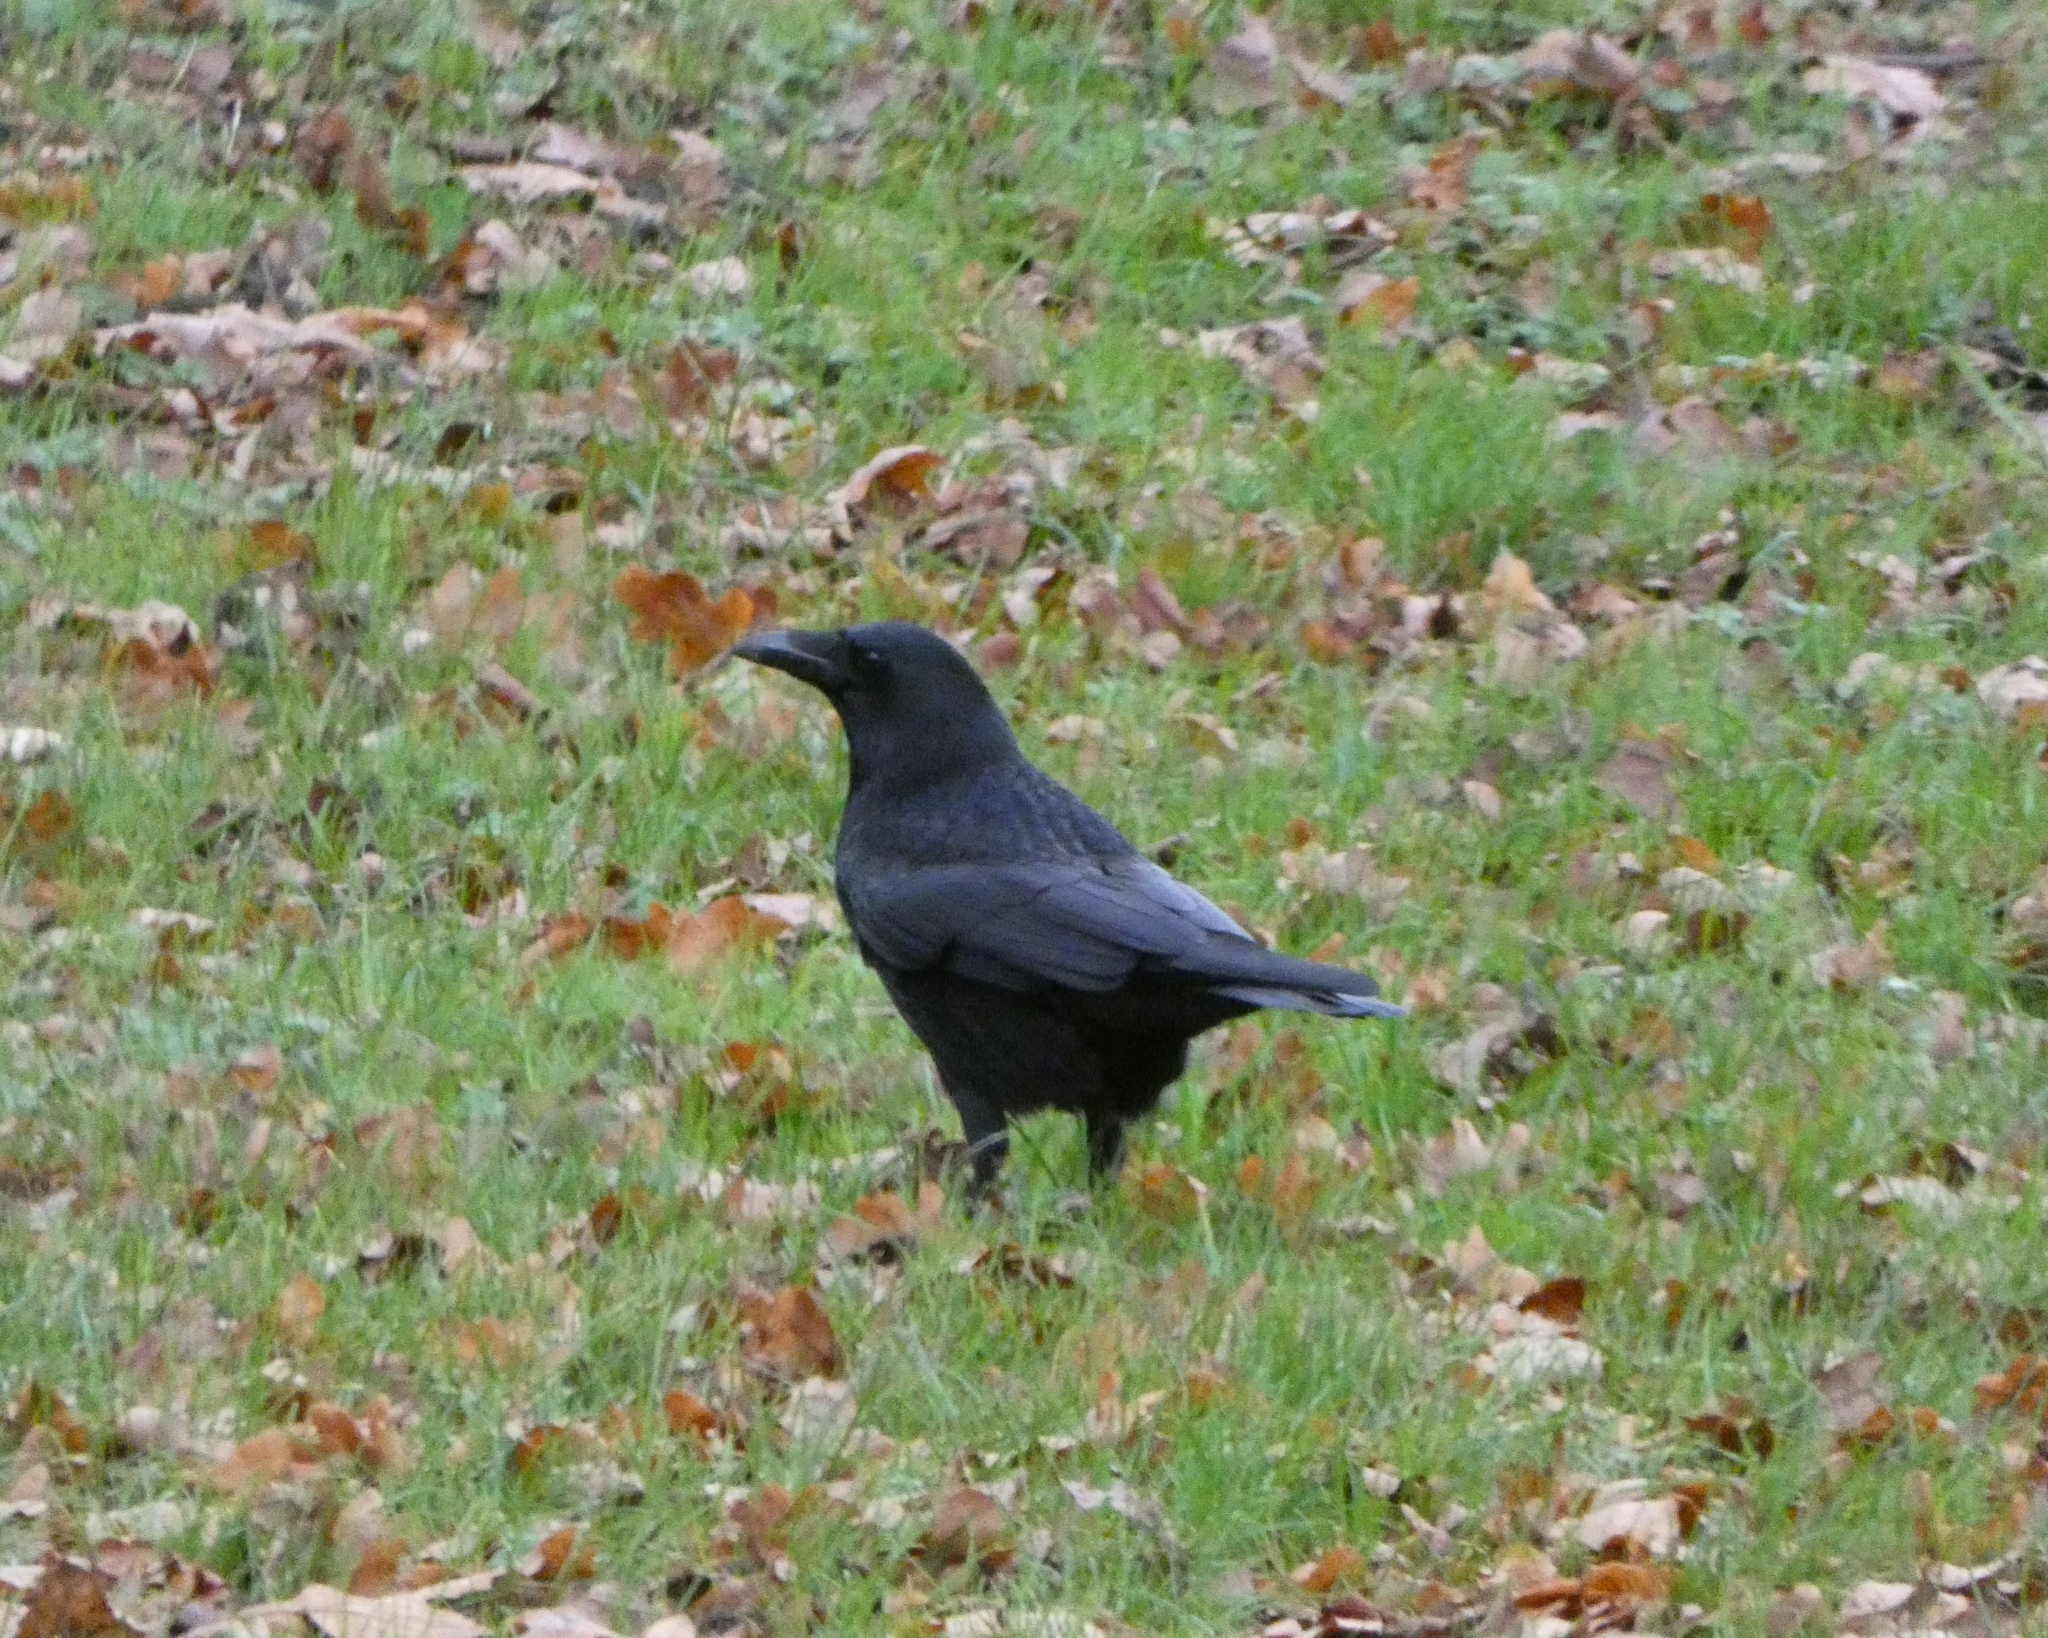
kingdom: Animalia
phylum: Chordata
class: Aves
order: Passeriformes
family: Corvidae
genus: Corvus
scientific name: Corvus corone
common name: Carrion crow
